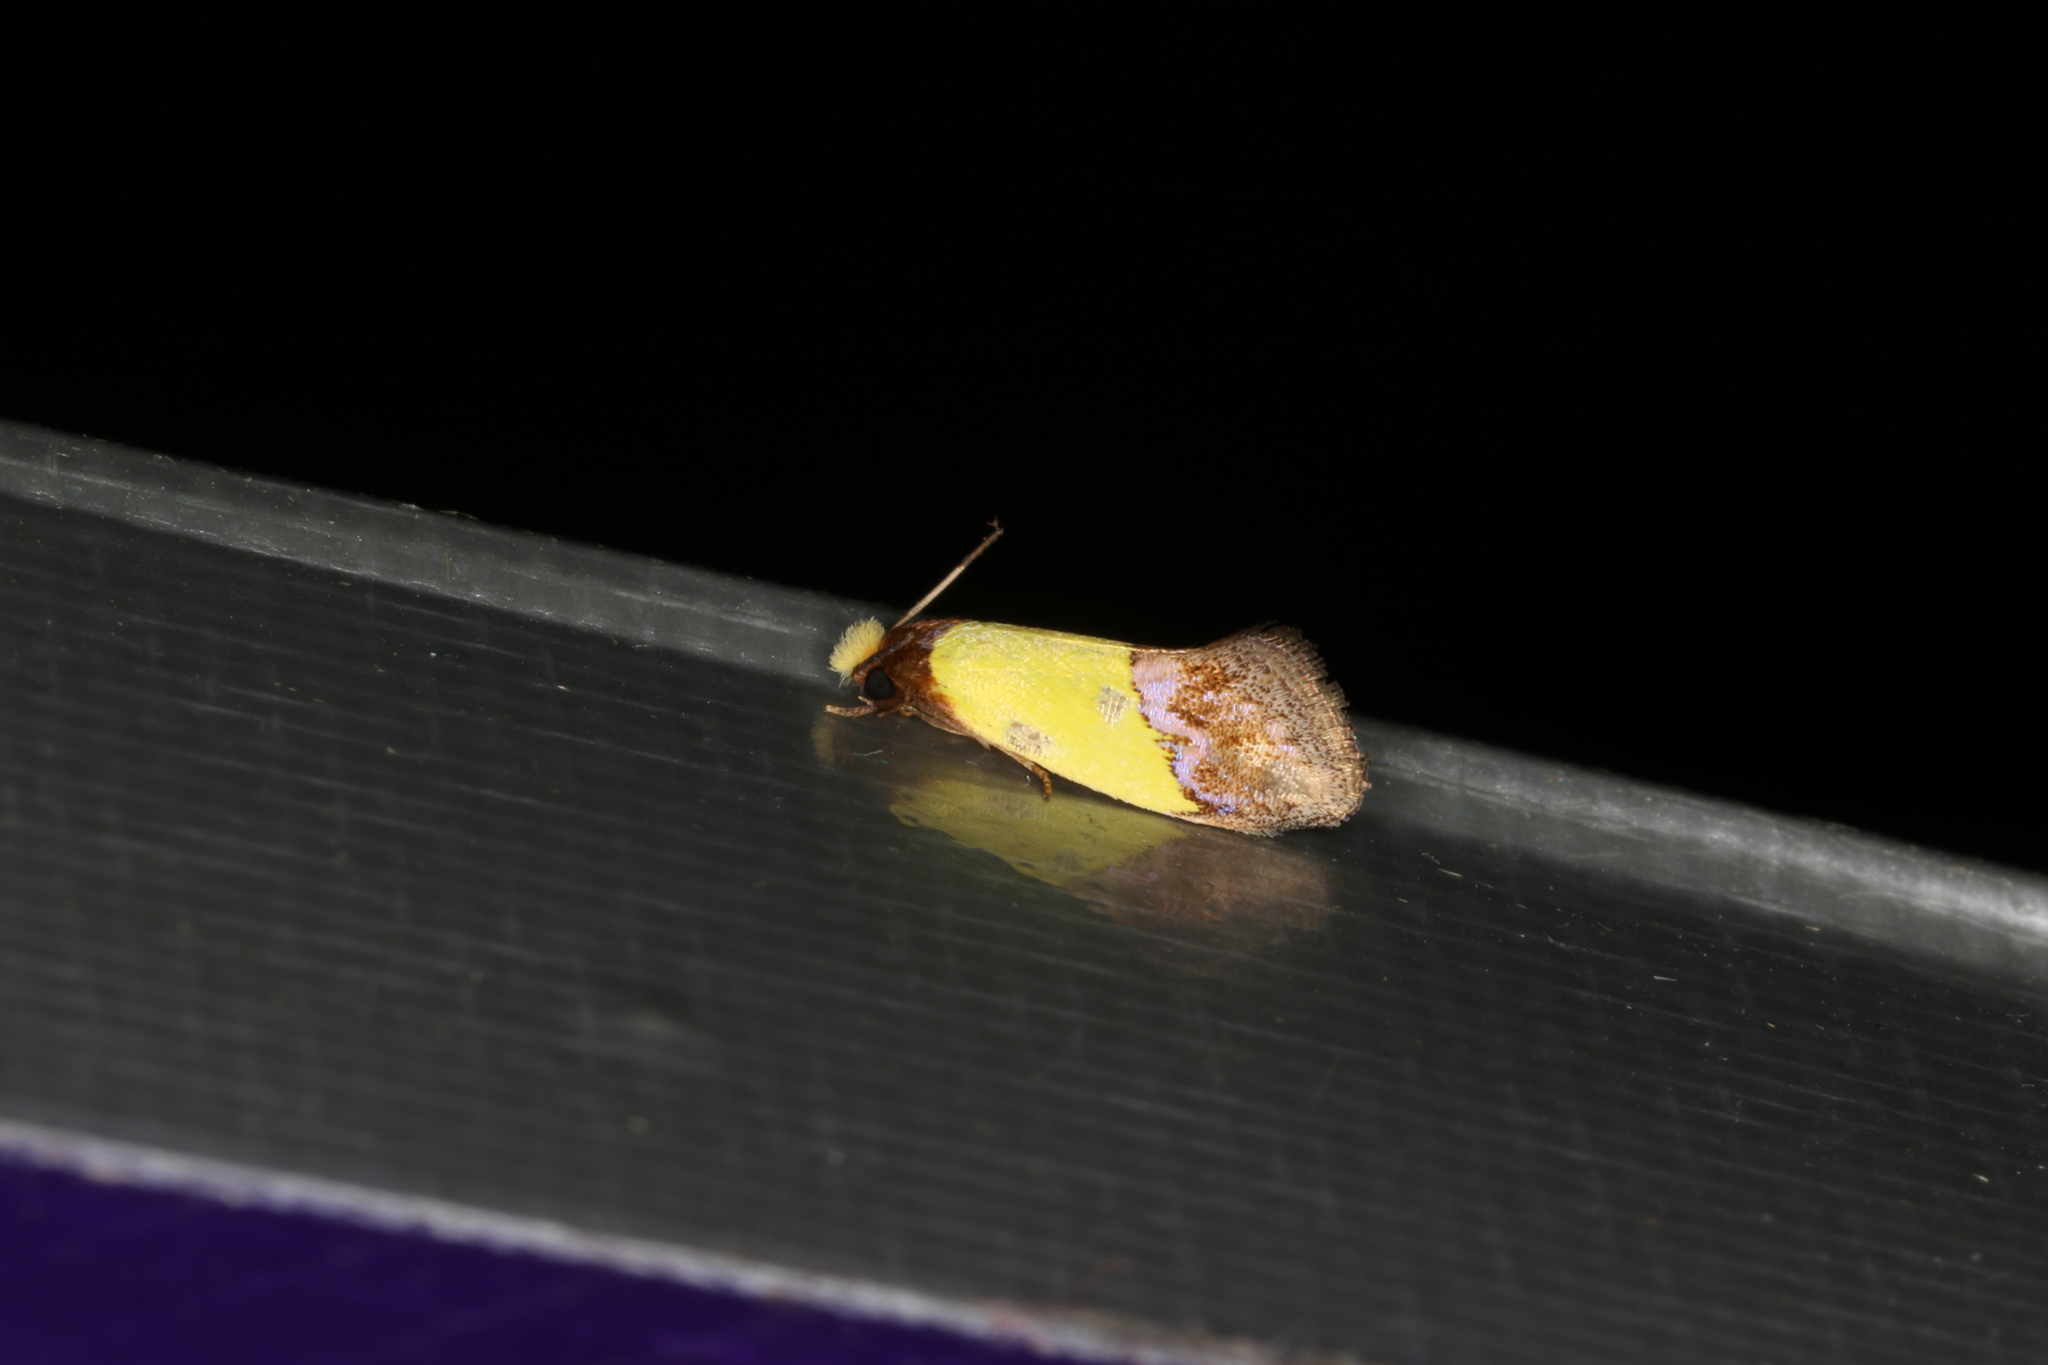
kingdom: Animalia
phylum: Arthropoda
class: Insecta
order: Lepidoptera
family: Tineidae
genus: Edosa
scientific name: Edosa xystidophora
